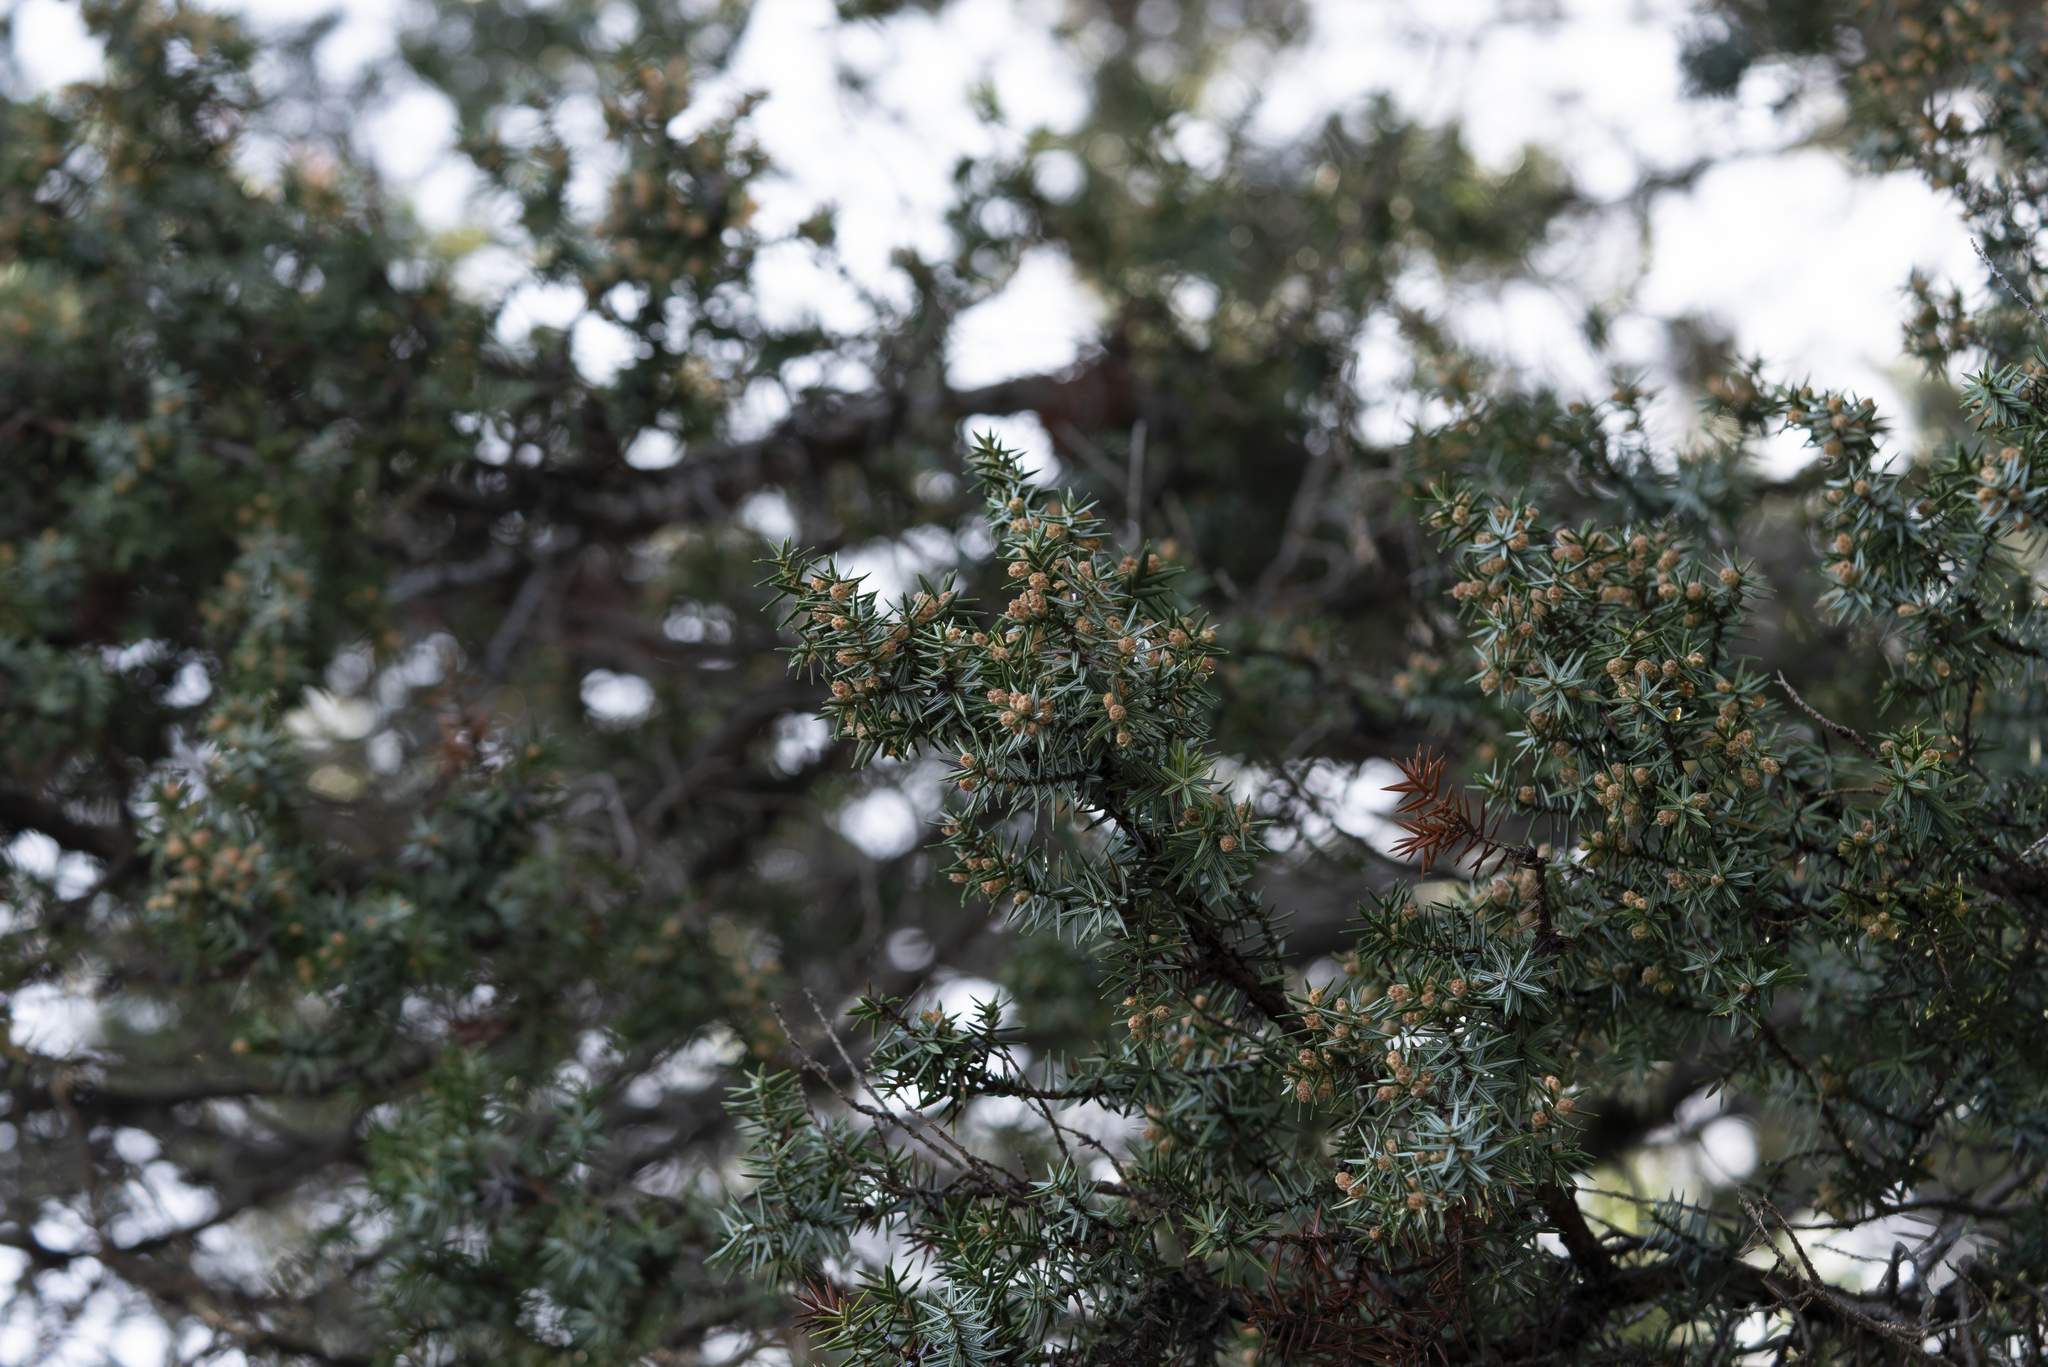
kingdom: Plantae
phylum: Tracheophyta
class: Pinopsida
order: Pinales
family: Cupressaceae
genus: Juniperus
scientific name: Juniperus oxycedrus
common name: Prickly juniper
